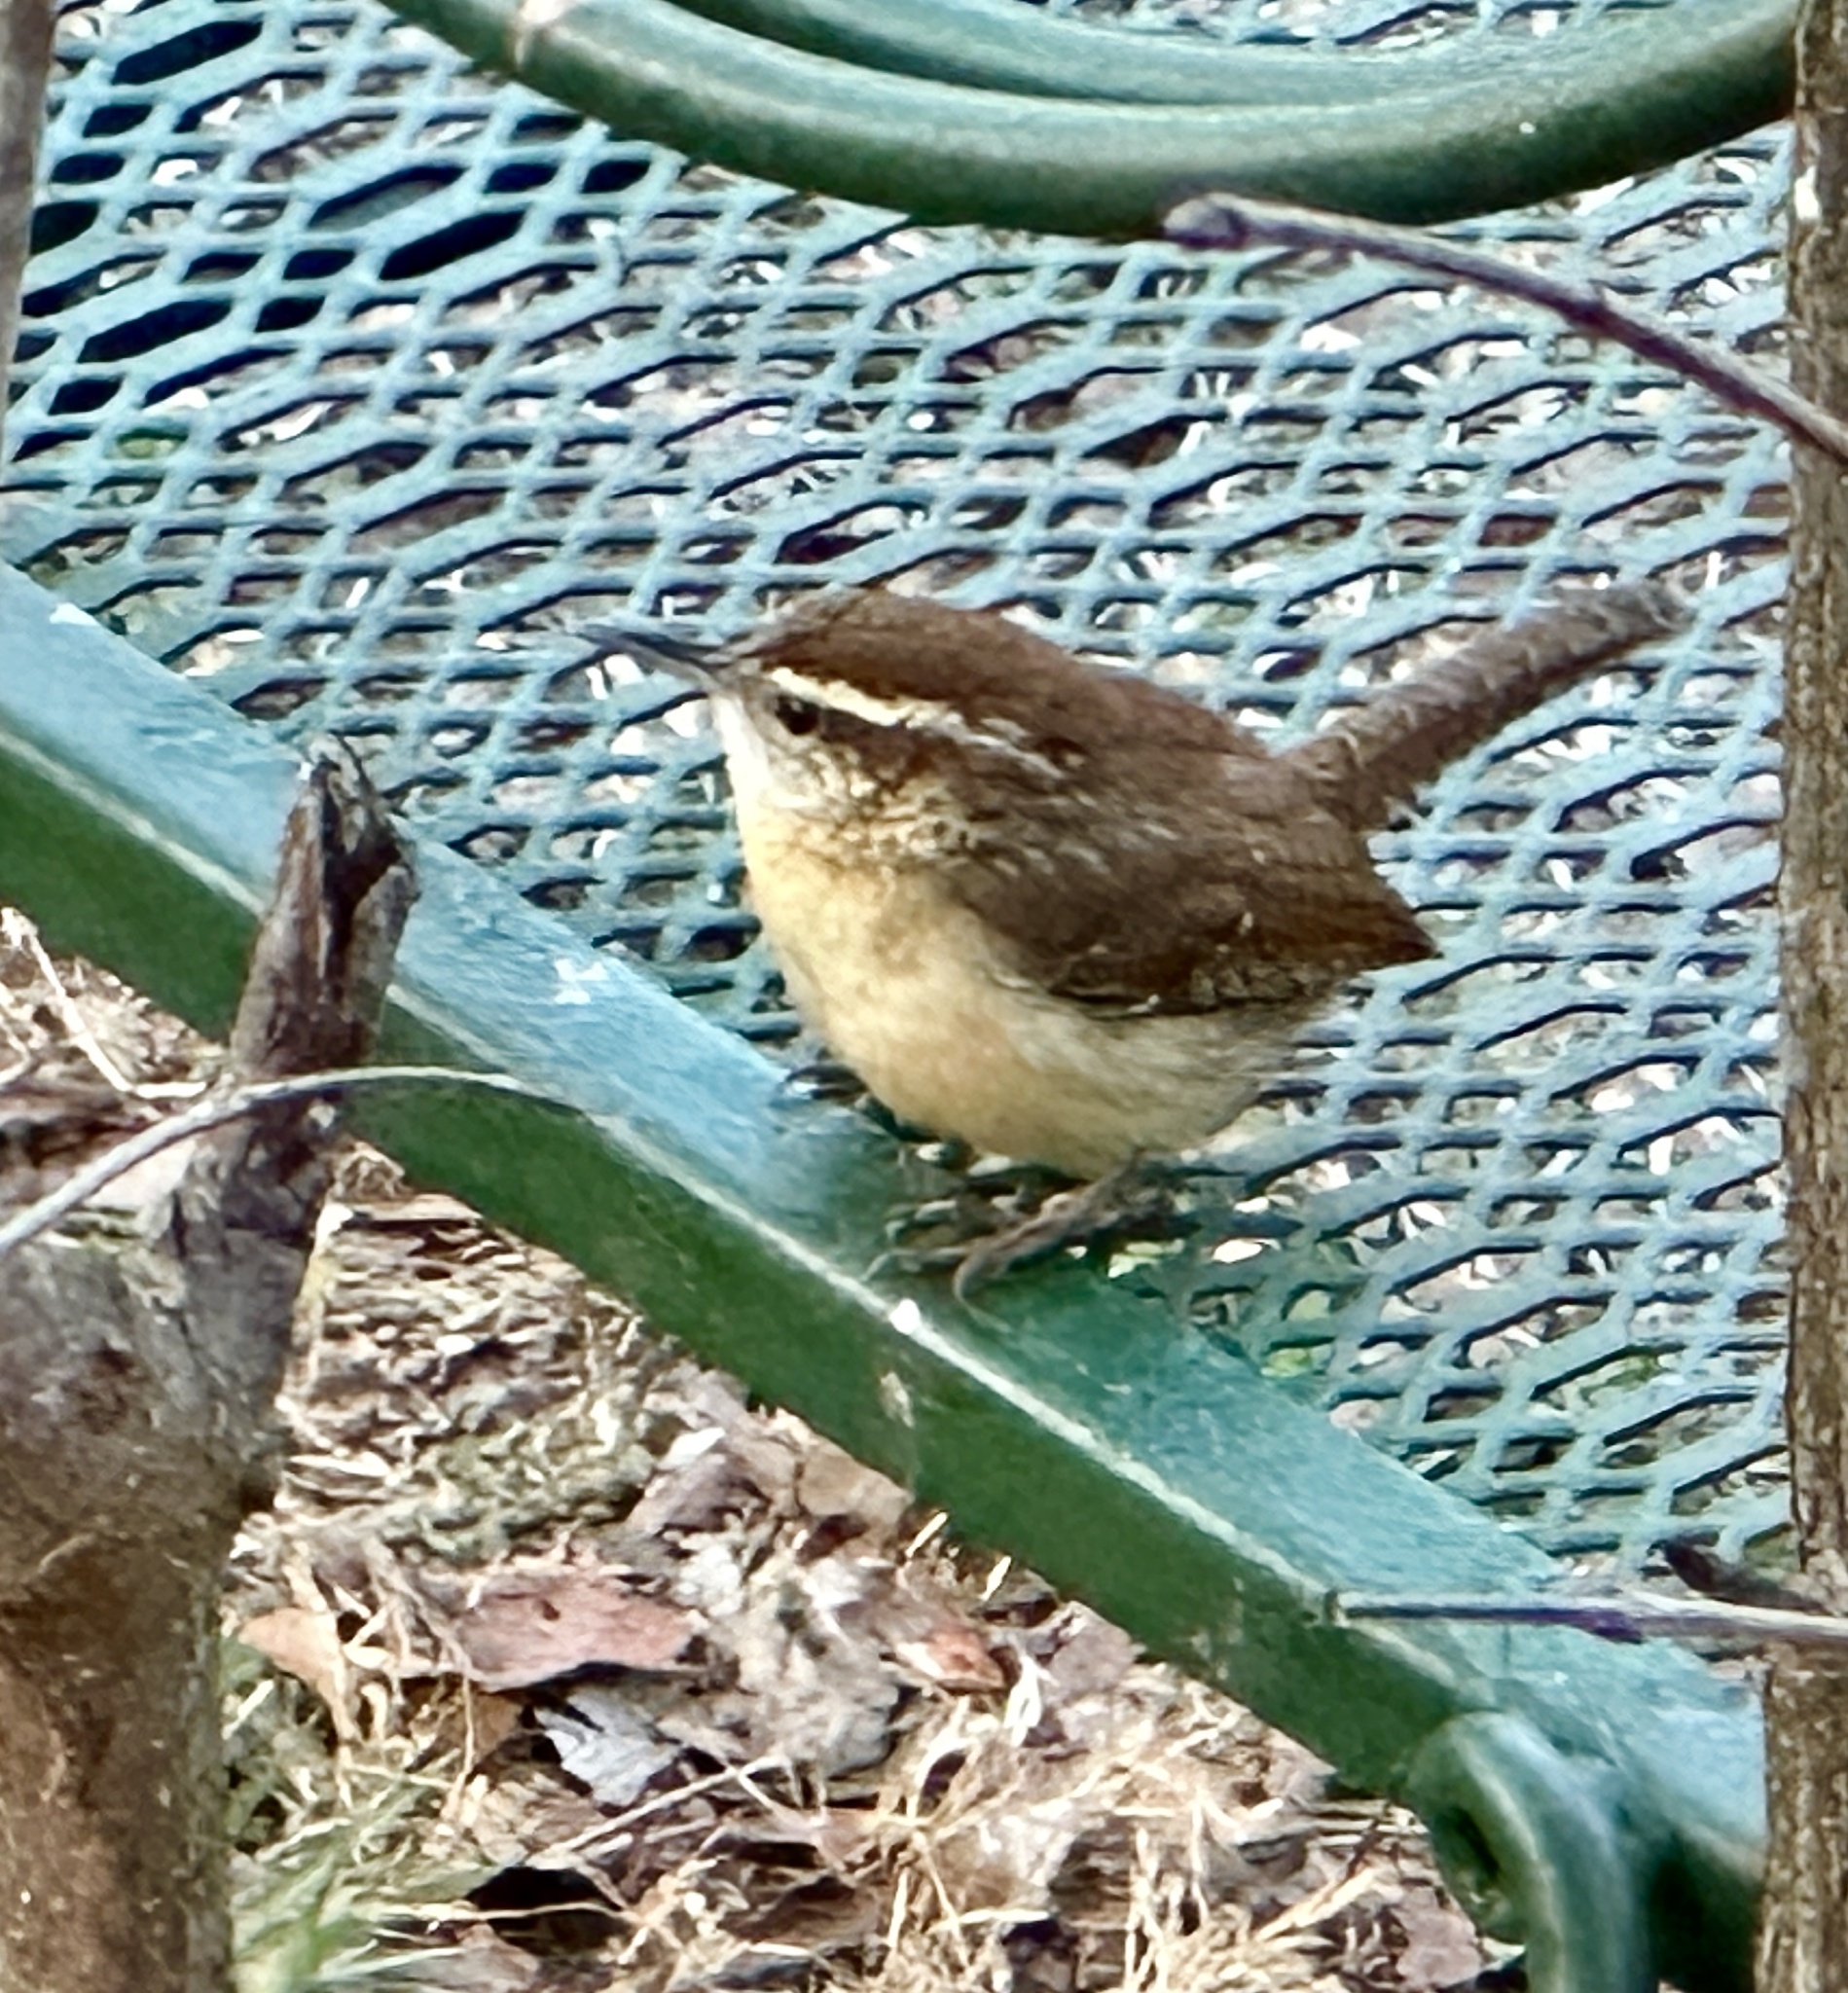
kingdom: Animalia
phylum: Chordata
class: Aves
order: Passeriformes
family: Troglodytidae
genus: Thryothorus
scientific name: Thryothorus ludovicianus
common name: Carolina wren
